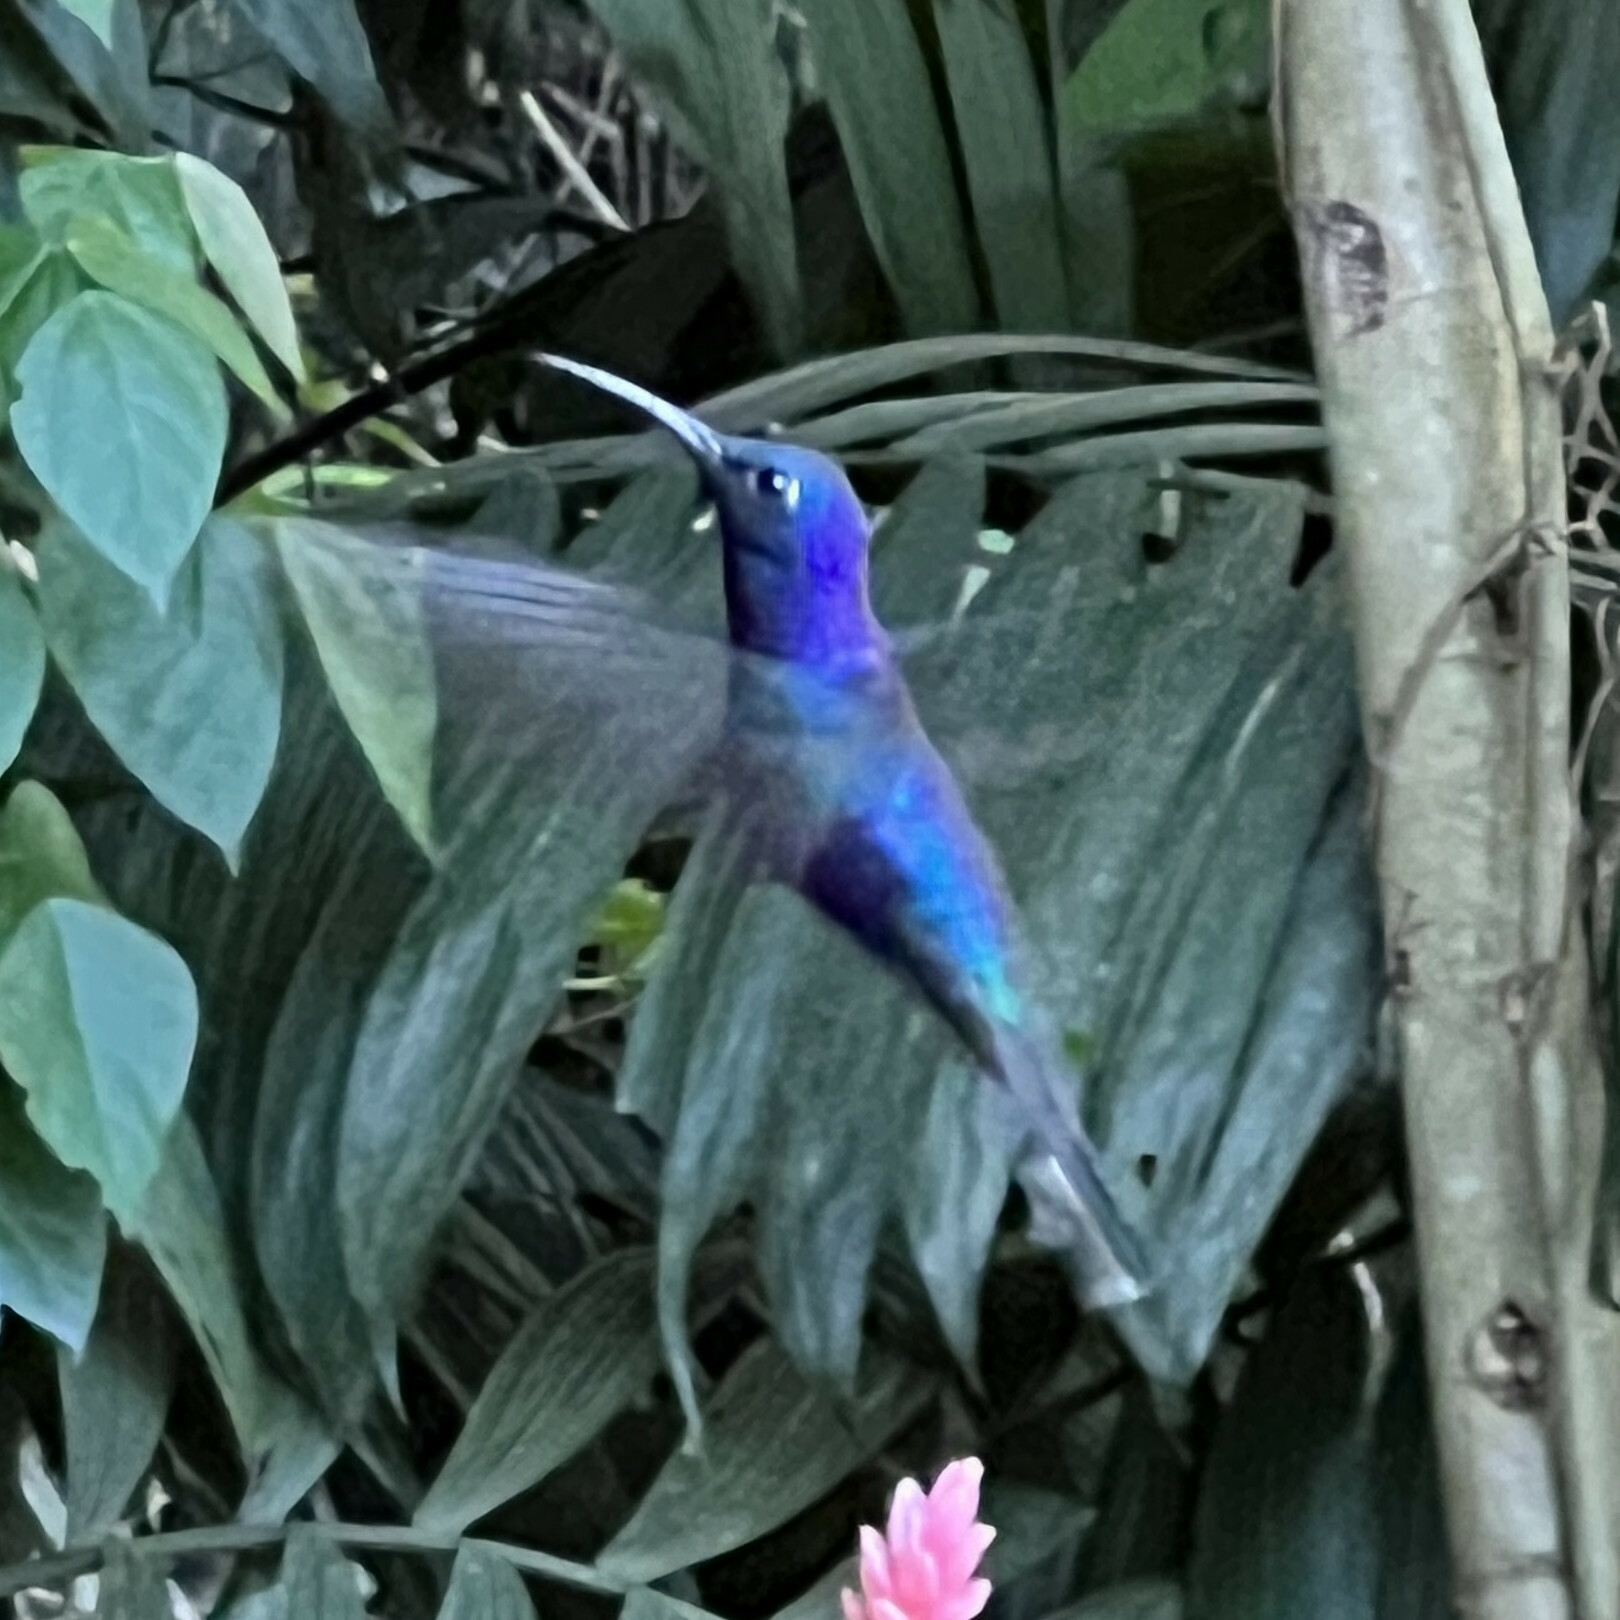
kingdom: Animalia
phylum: Chordata
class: Aves
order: Apodiformes
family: Trochilidae
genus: Campylopterus
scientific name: Campylopterus hemileucurus
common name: Violet sabrewing
